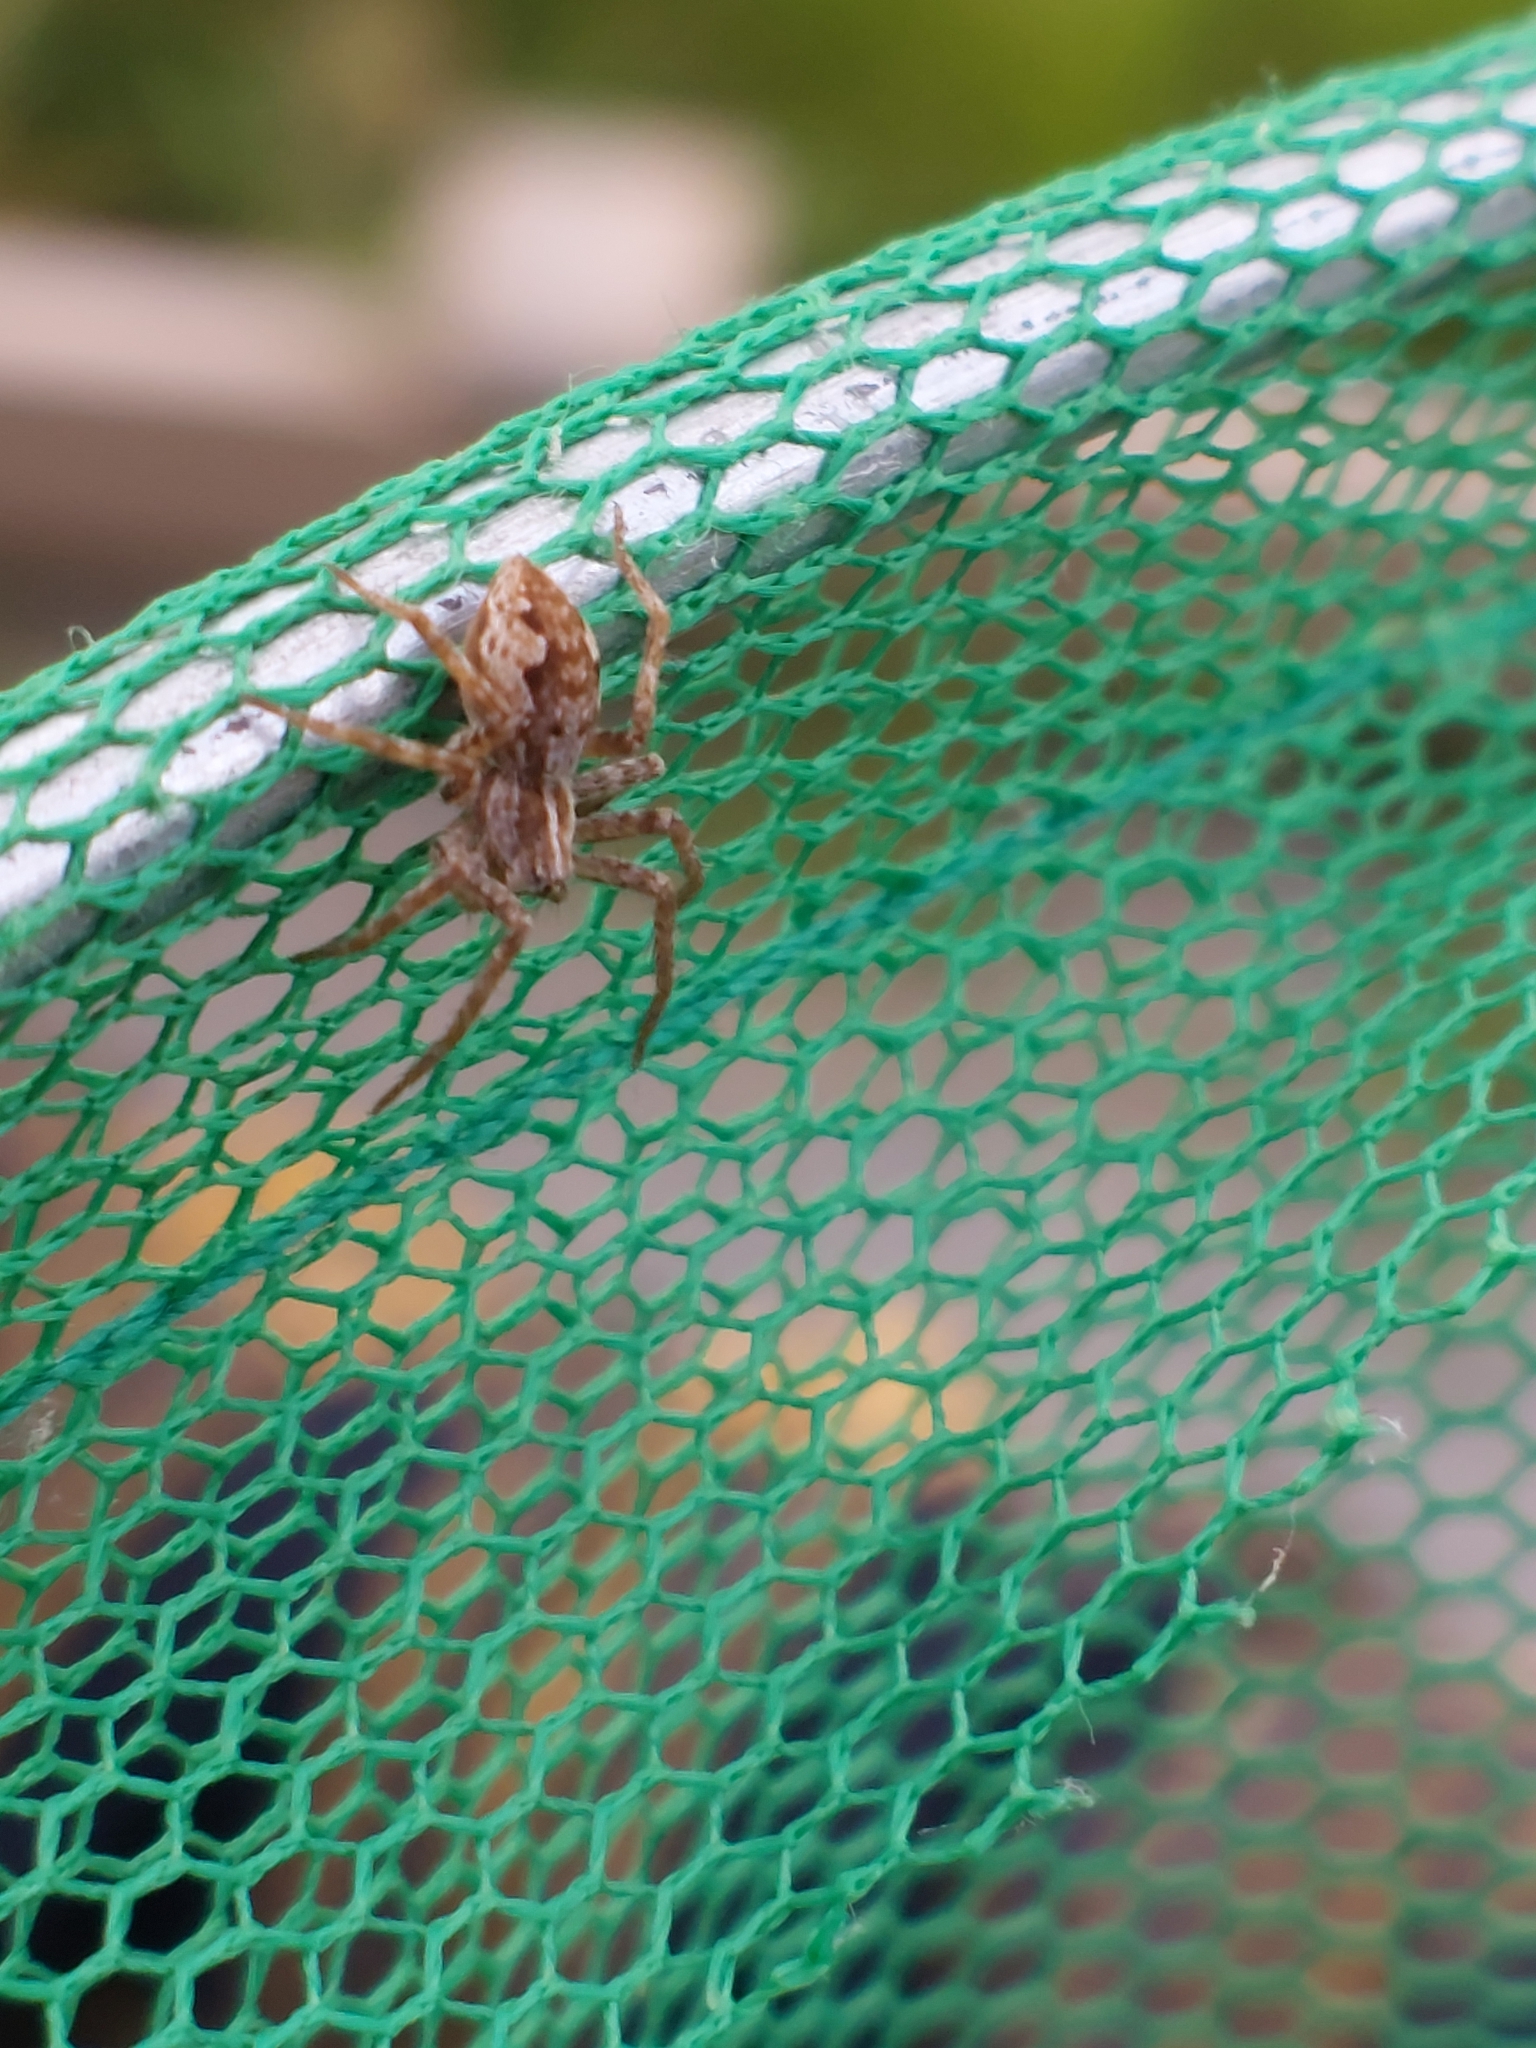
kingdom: Animalia
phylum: Arthropoda
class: Arachnida
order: Araneae
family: Pisauridae
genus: Pisaura
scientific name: Pisaura mirabilis
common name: Tent spider
